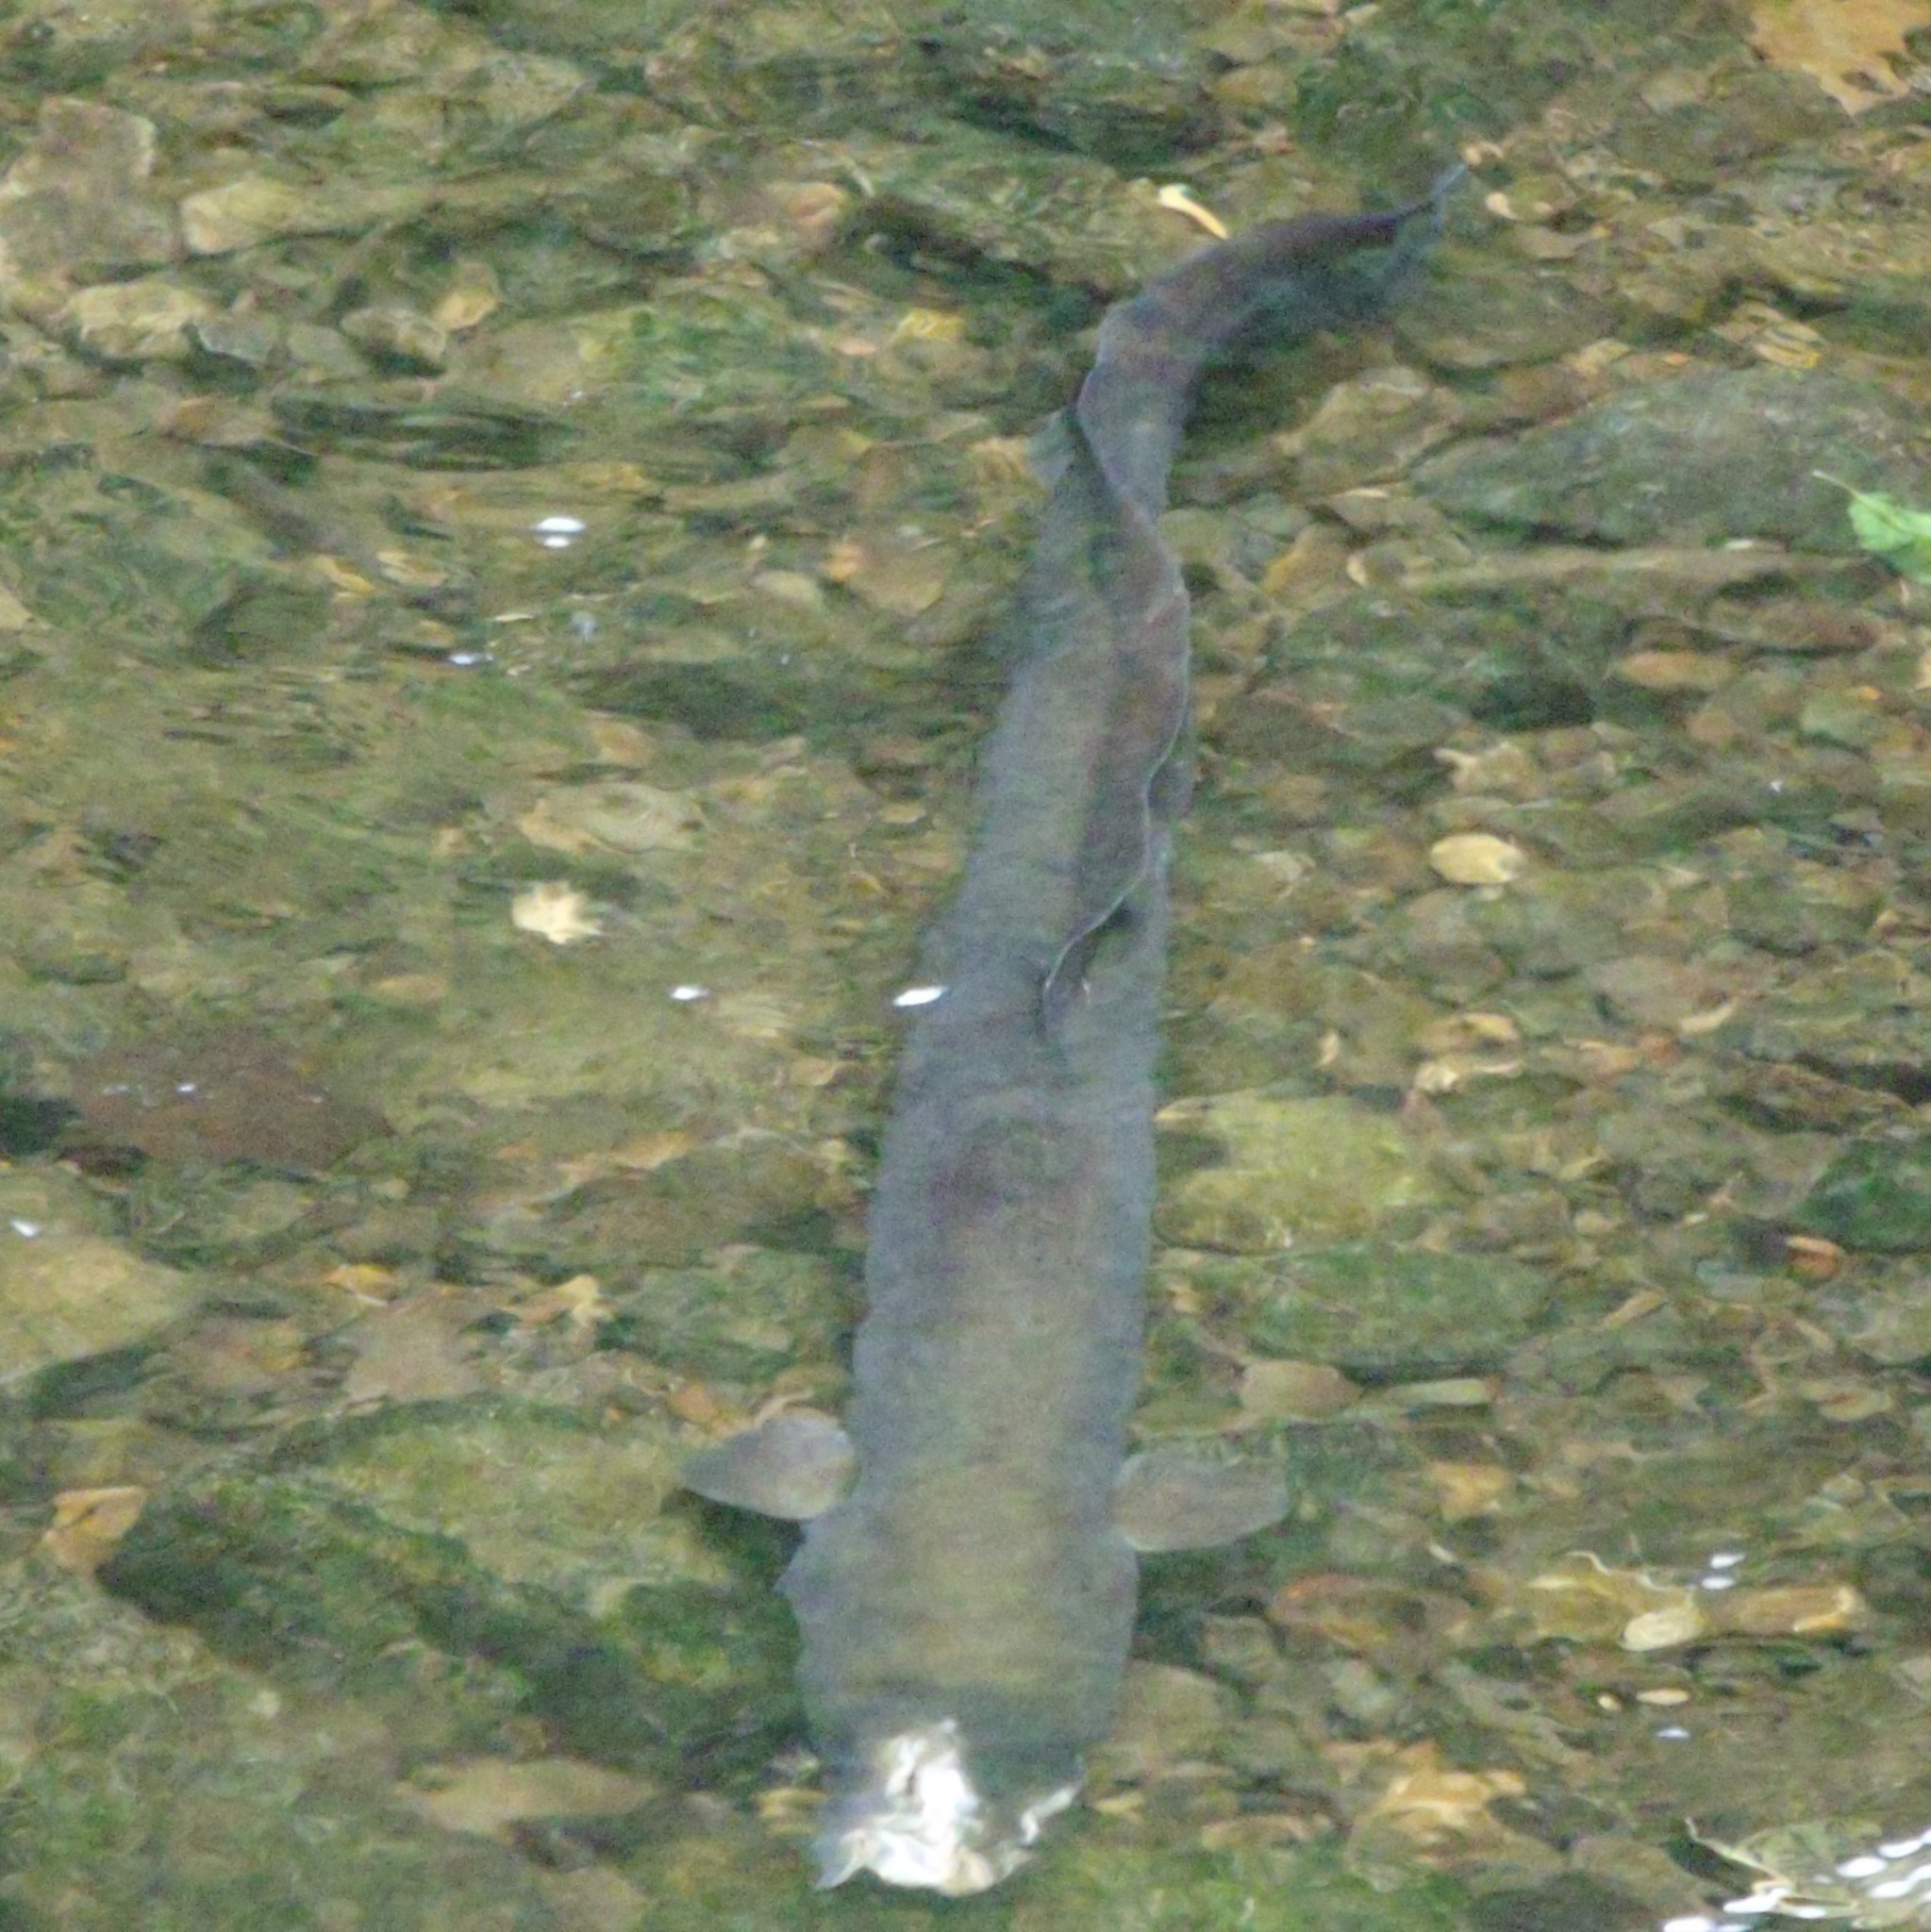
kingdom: Animalia
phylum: Chordata
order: Anguilliformes
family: Anguillidae
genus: Anguilla
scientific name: Anguilla dieffenbachii
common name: New zealand longfin eel
